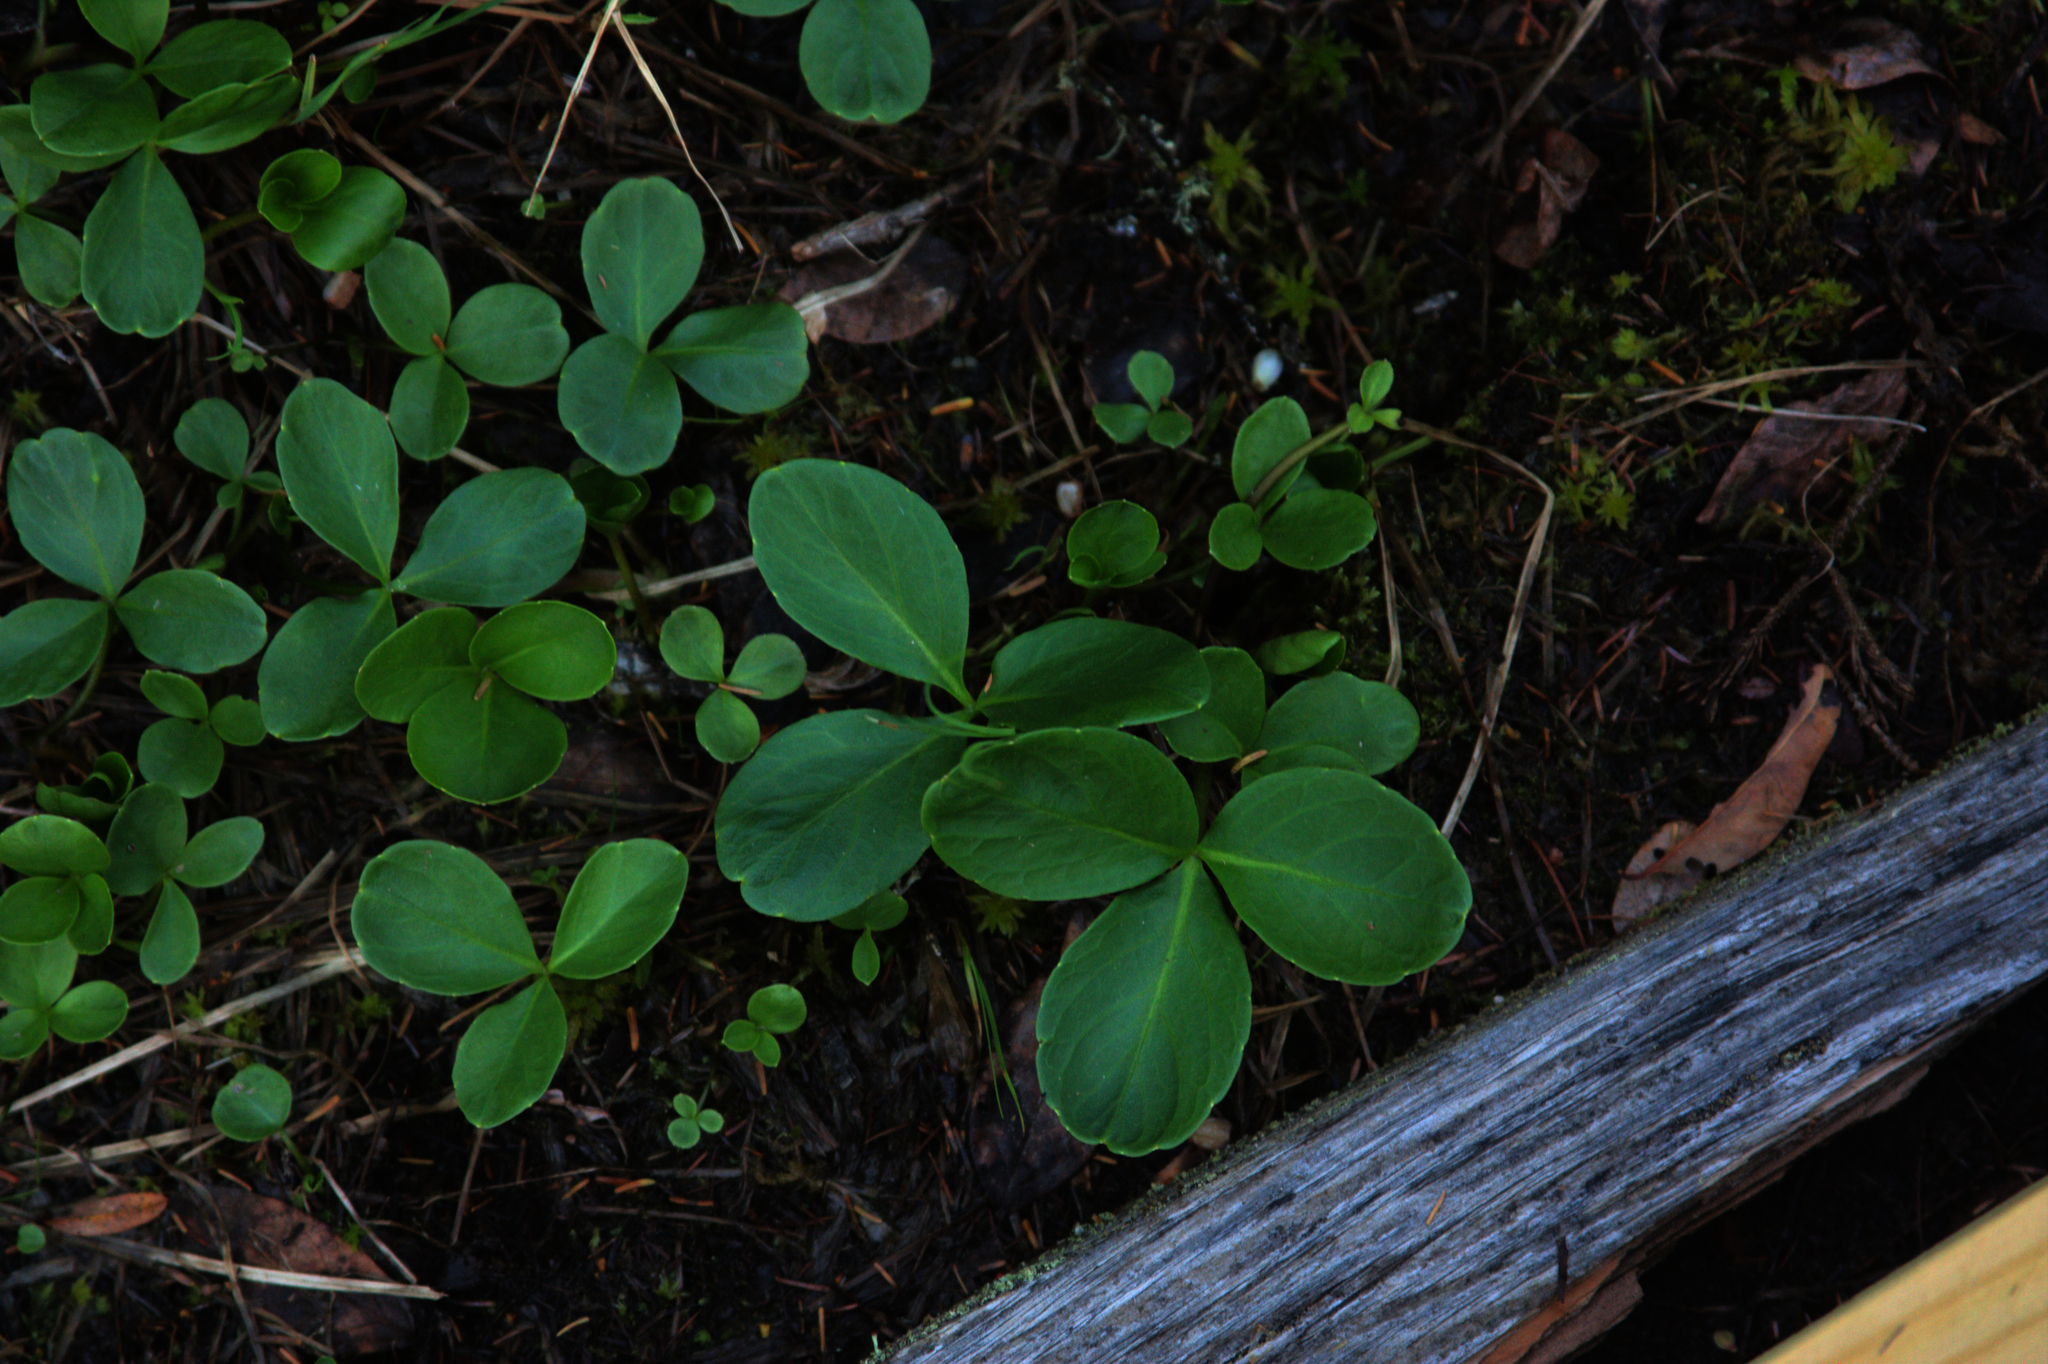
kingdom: Plantae
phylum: Tracheophyta
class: Magnoliopsida
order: Asterales
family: Menyanthaceae
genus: Menyanthes
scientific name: Menyanthes trifoliata
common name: Bogbean
